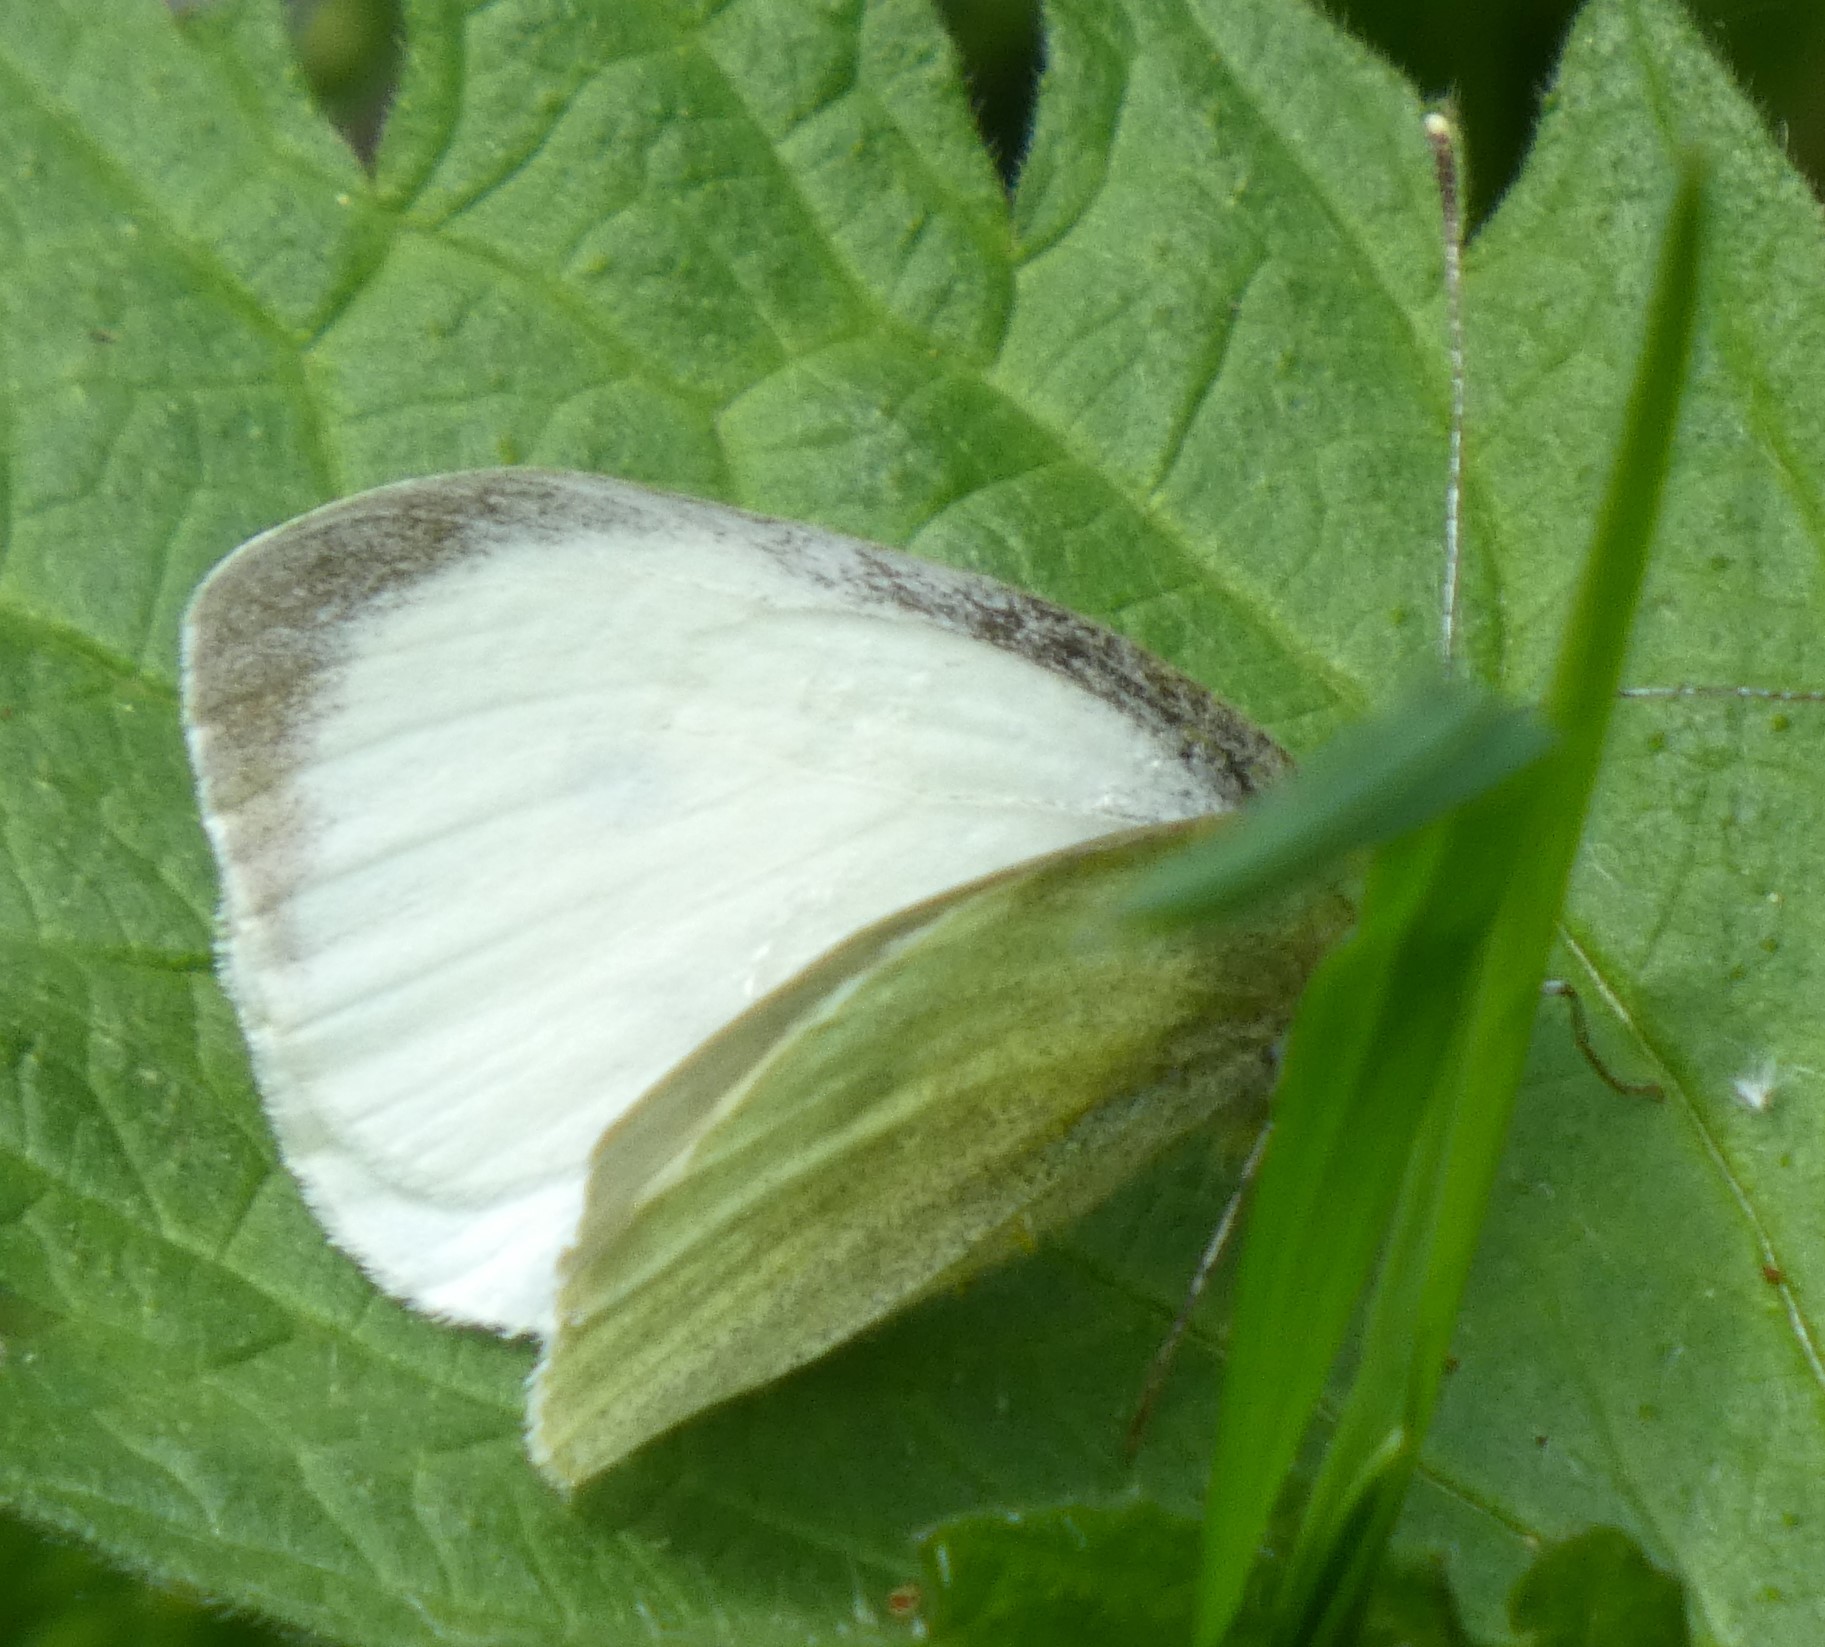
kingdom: Animalia
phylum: Arthropoda
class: Insecta
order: Lepidoptera
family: Pieridae
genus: Pieris
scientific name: Pieris brassicae
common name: Large white
